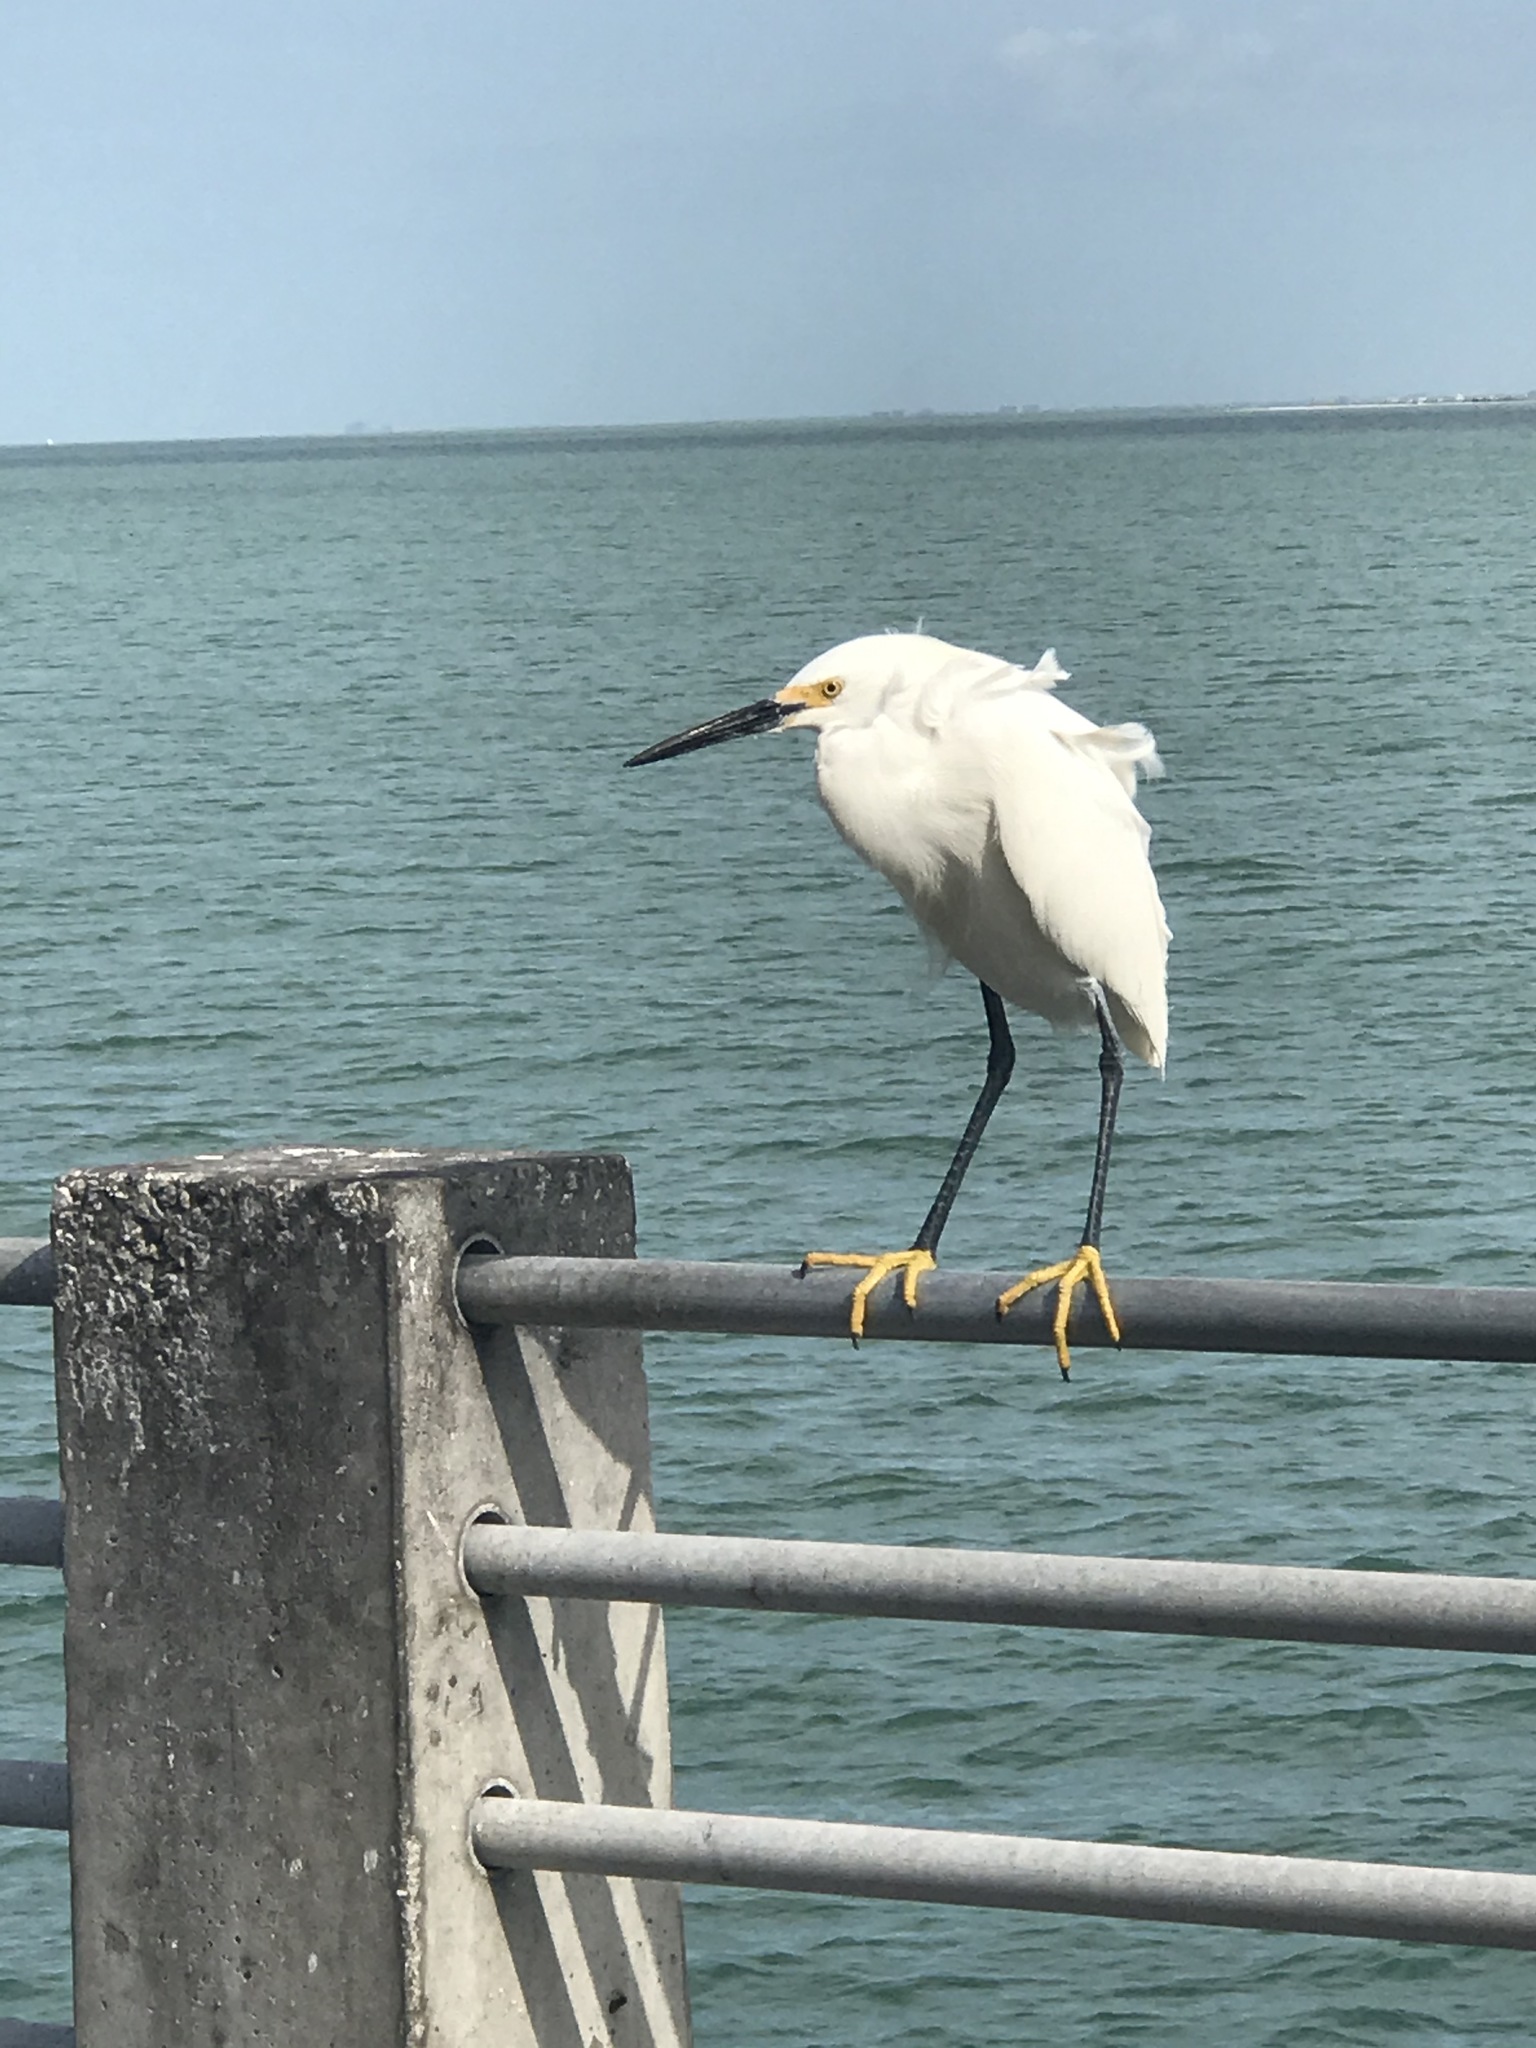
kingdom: Animalia
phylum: Chordata
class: Aves
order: Pelecaniformes
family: Ardeidae
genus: Egretta
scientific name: Egretta thula
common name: Snowy egret
